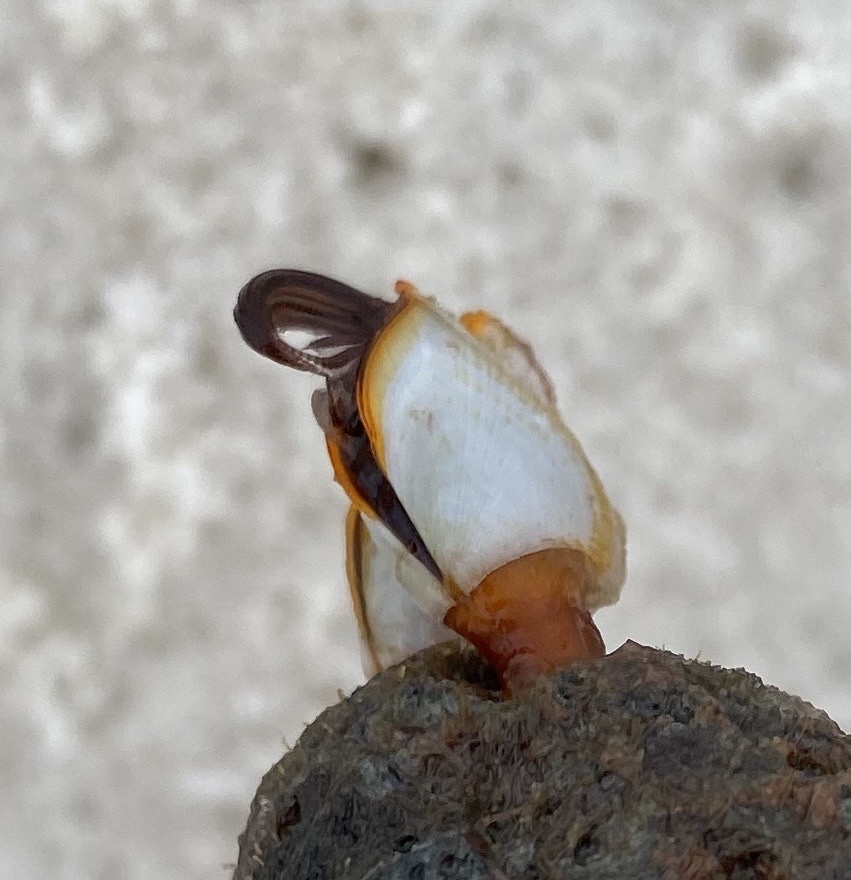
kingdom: Animalia
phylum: Arthropoda
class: Maxillopoda
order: Pedunculata
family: Lepadidae
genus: Lepas
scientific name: Lepas anserifera
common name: Goose barnacle
